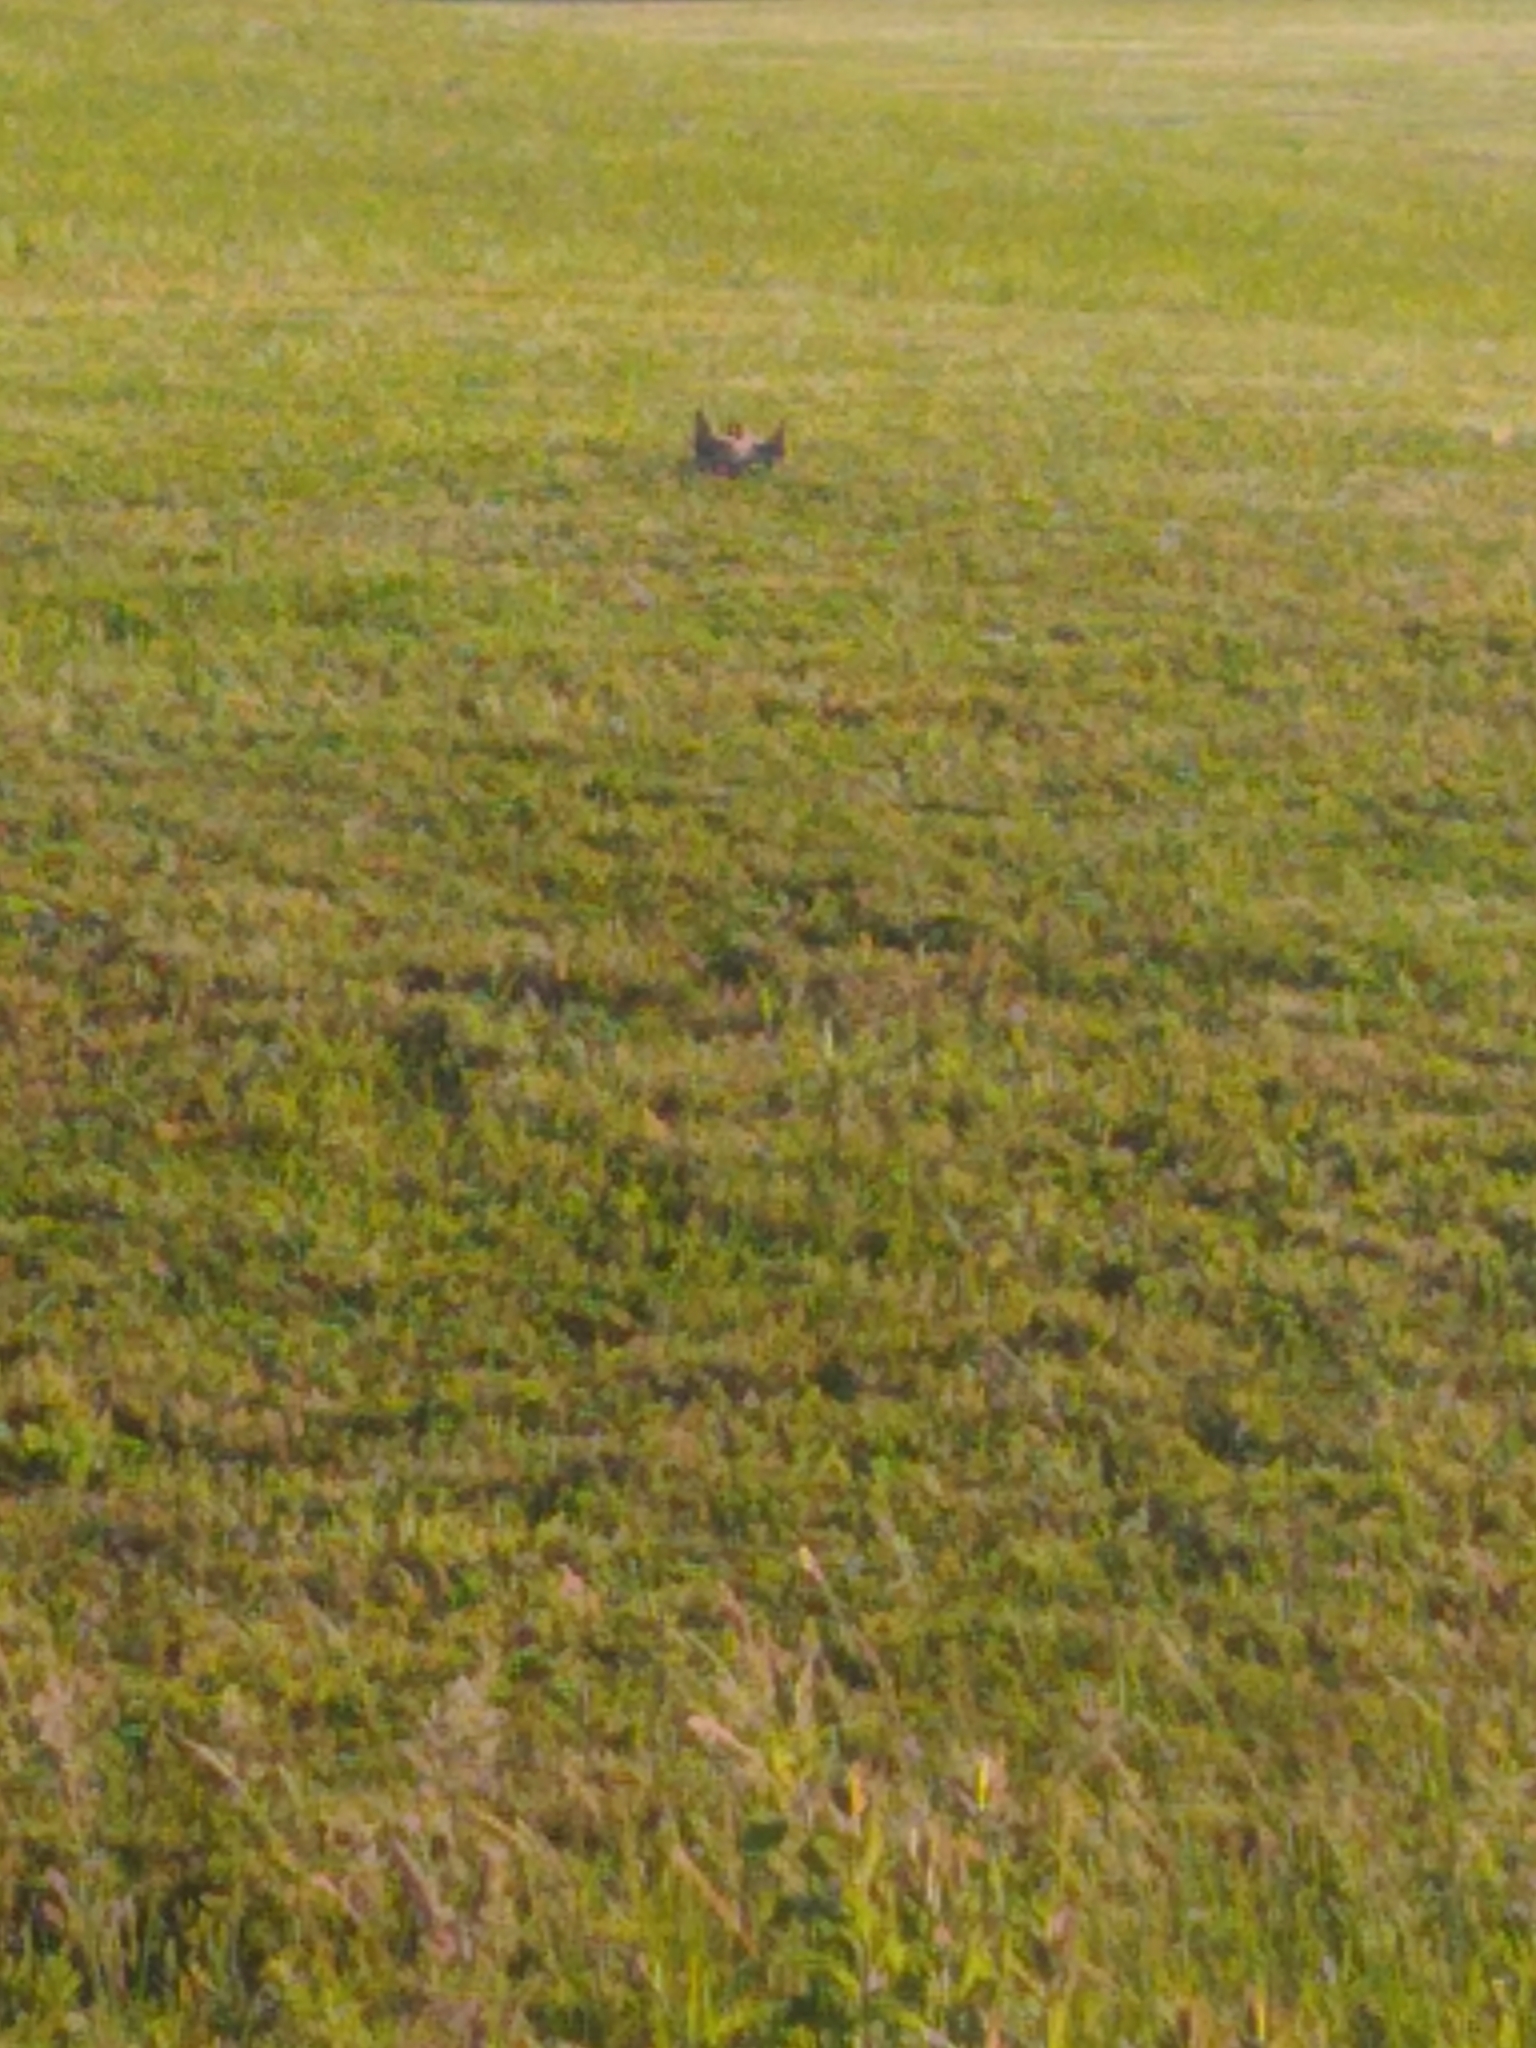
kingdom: Animalia
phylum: Chordata
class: Aves
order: Charadriiformes
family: Charadriidae
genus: Charadrius
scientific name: Charadrius vociferus
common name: Killdeer
